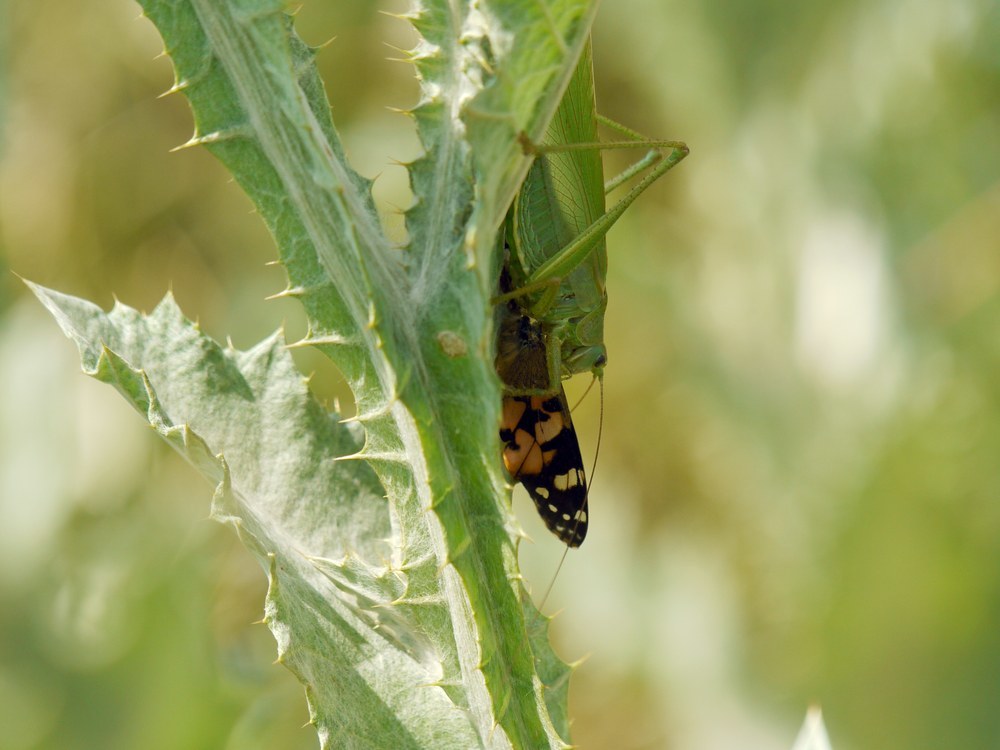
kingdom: Animalia
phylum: Arthropoda
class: Insecta
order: Lepidoptera
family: Nymphalidae
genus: Vanessa
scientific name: Vanessa cardui
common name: Painted lady
